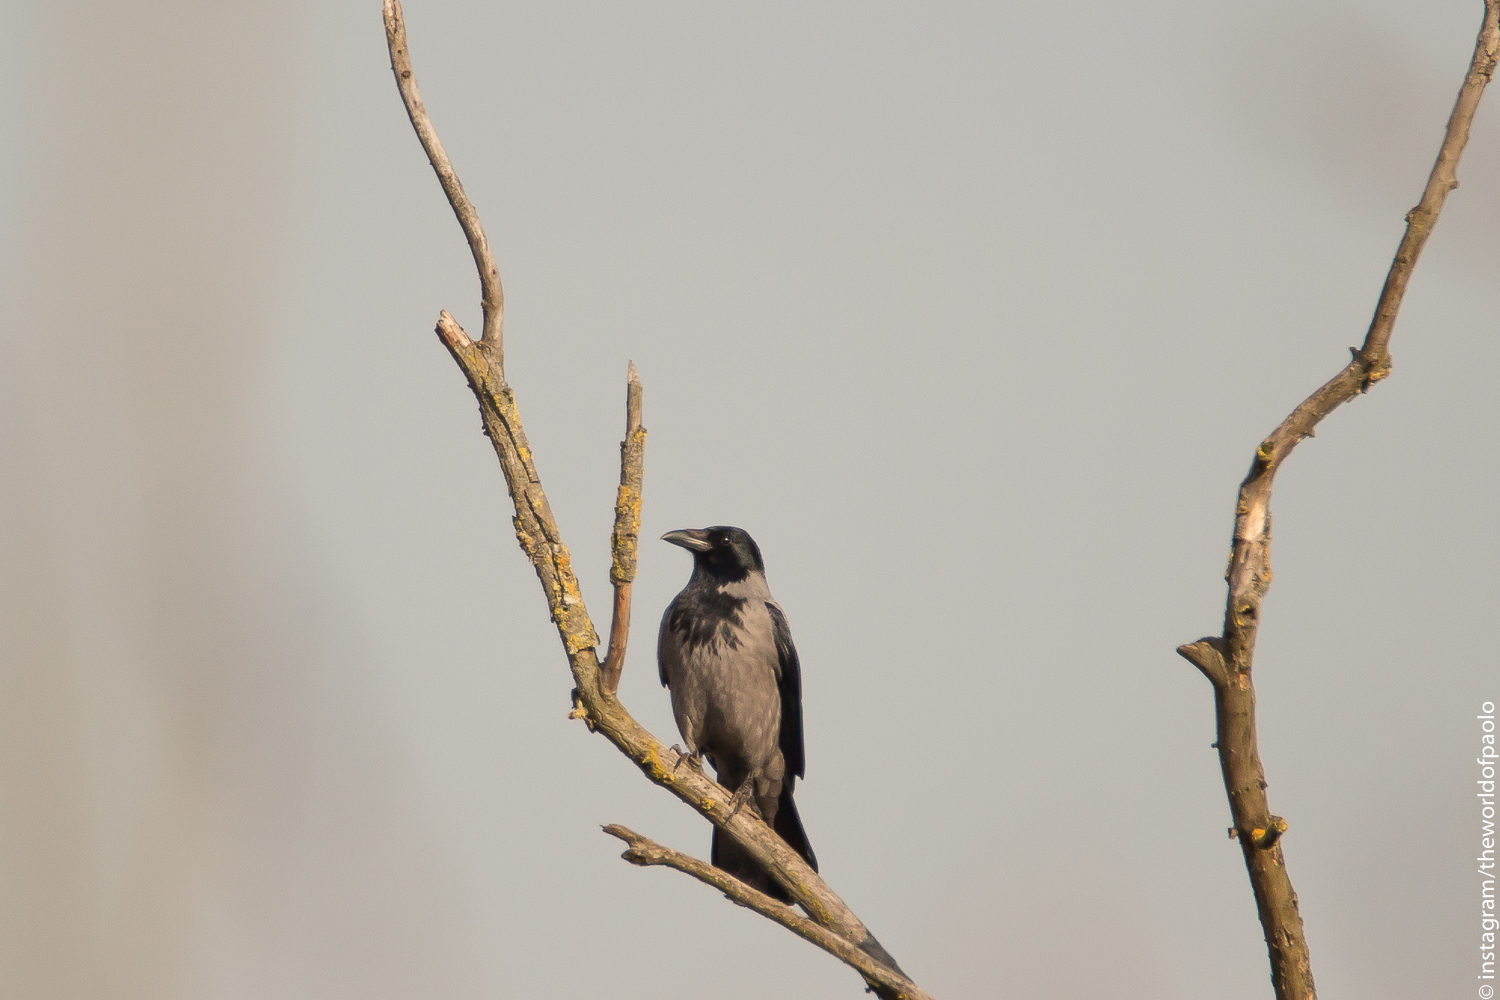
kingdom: Animalia
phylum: Chordata
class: Aves
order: Passeriformes
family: Corvidae
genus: Corvus
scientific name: Corvus cornix
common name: Hooded crow
